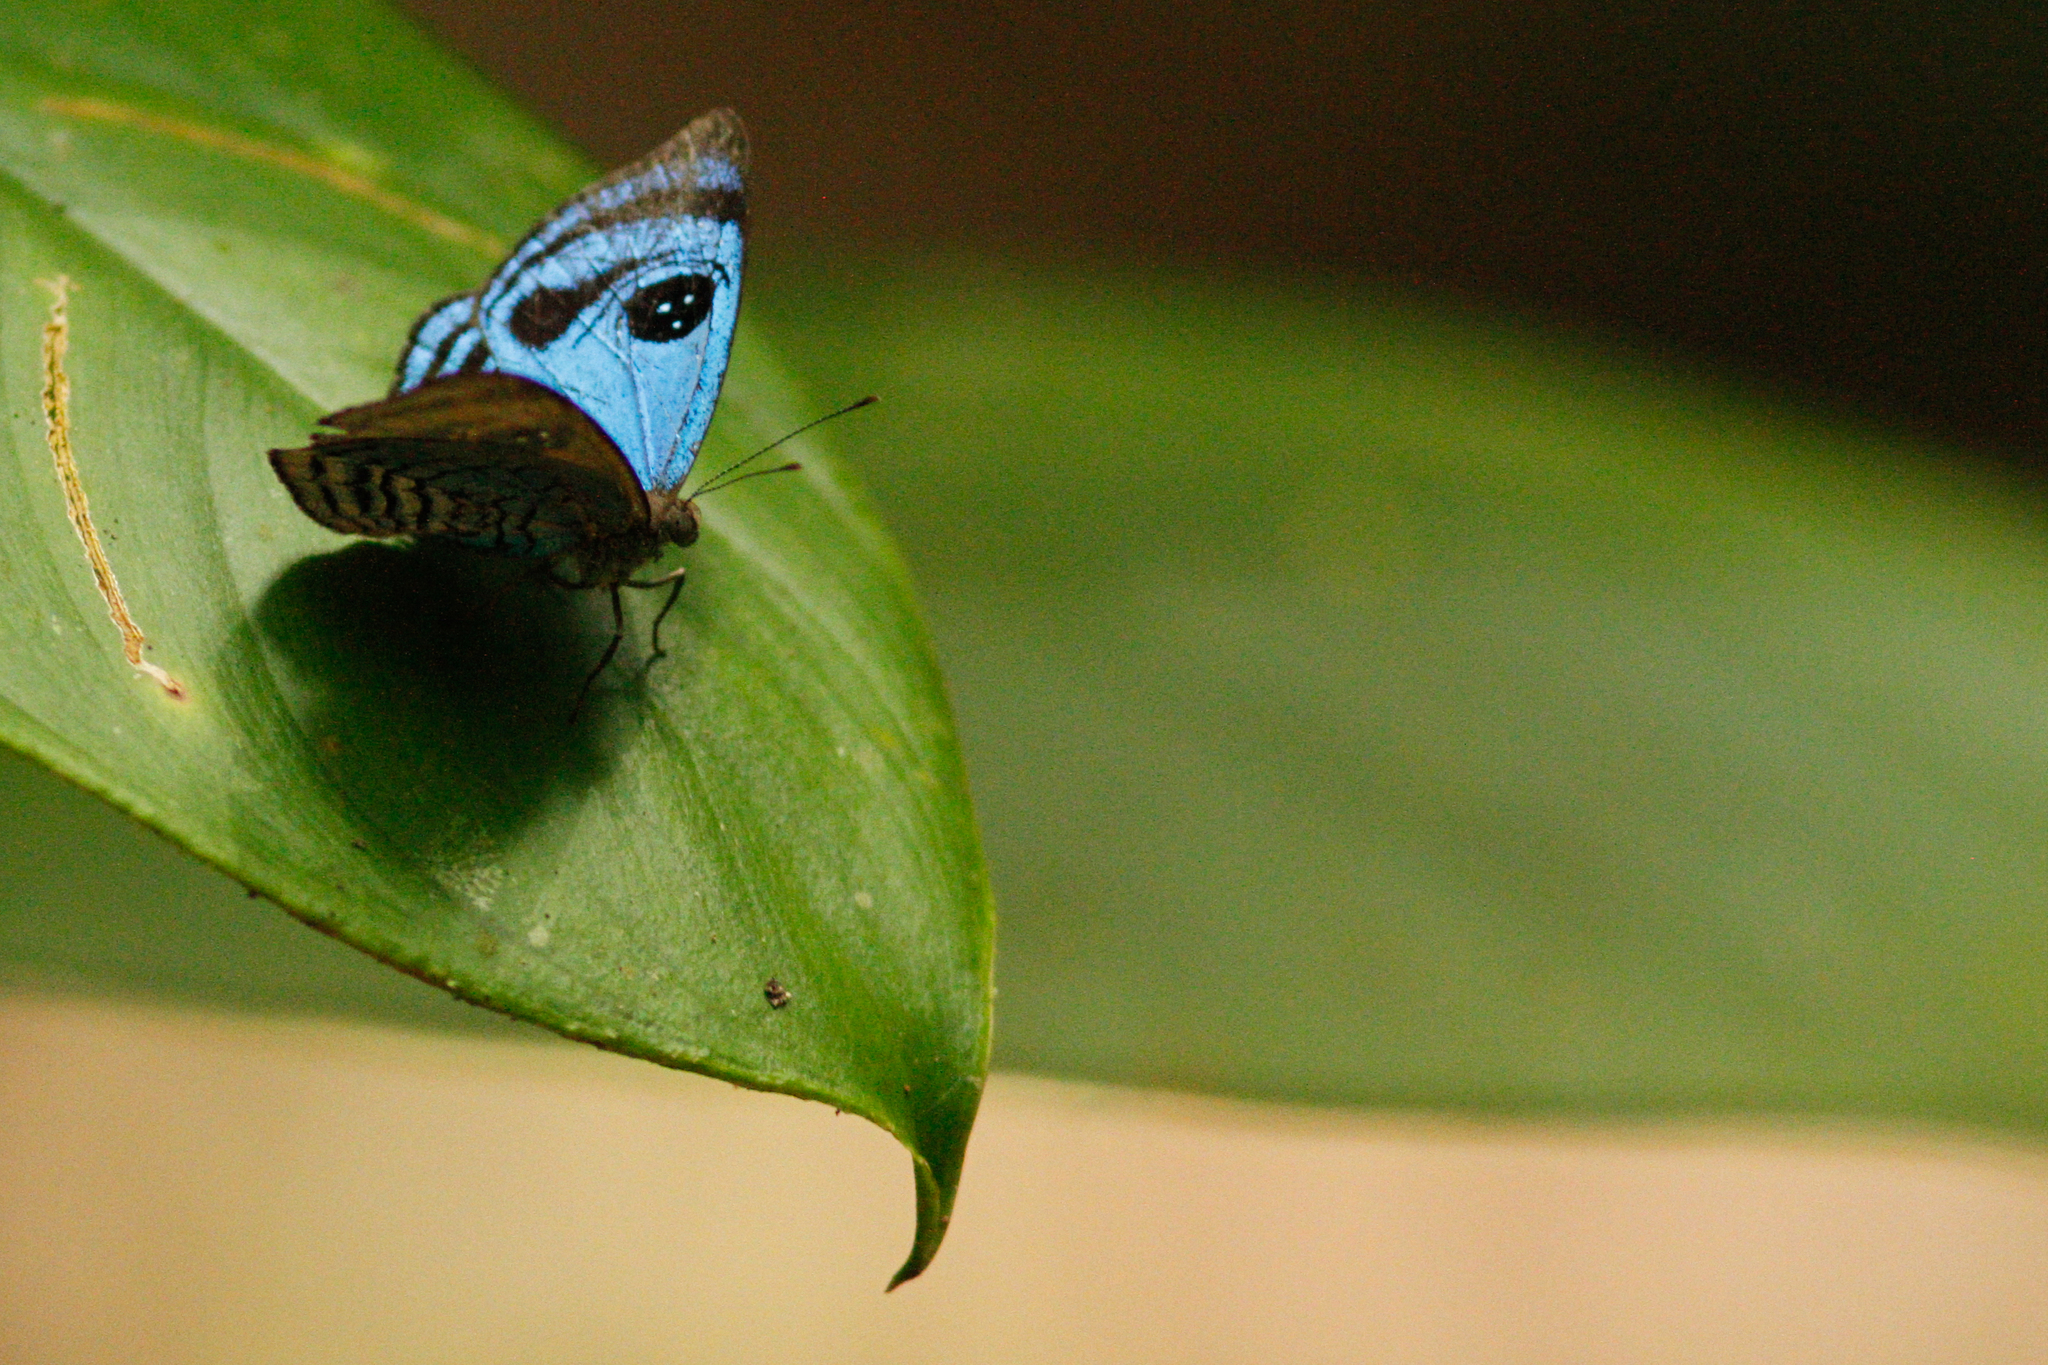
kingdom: Animalia
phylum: Arthropoda
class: Insecta
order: Lepidoptera
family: Riodinidae
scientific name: Riodinidae
